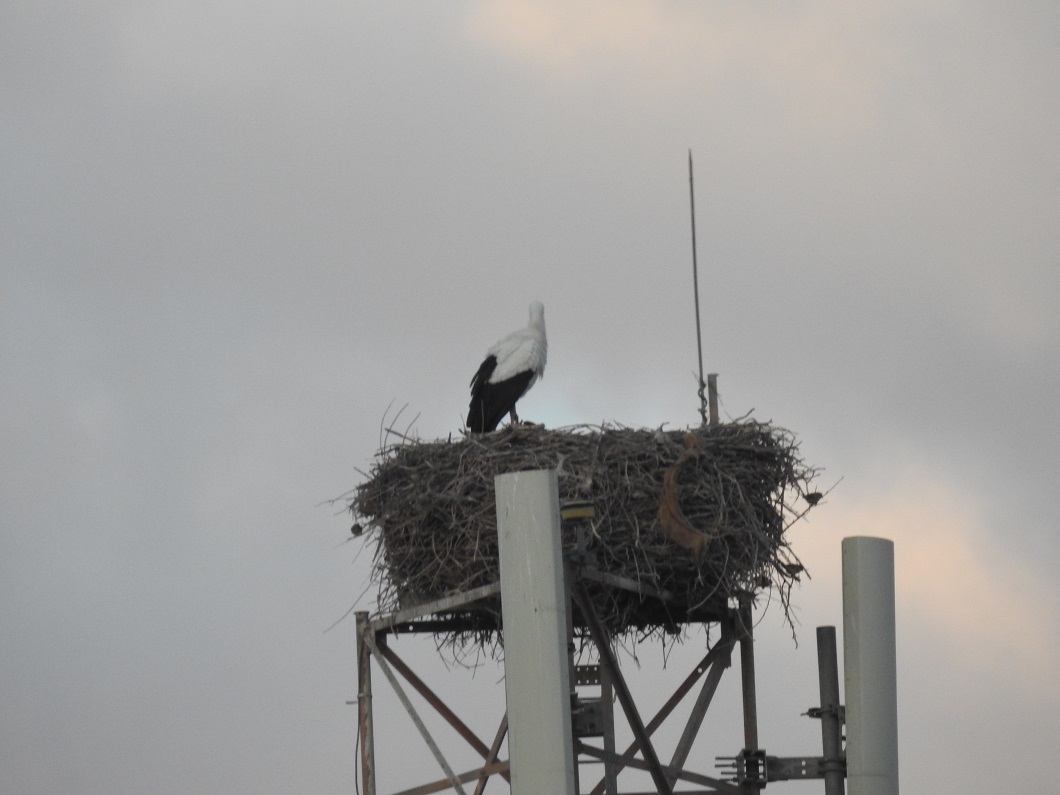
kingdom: Animalia
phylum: Chordata
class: Aves
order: Ciconiiformes
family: Ciconiidae
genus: Ciconia
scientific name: Ciconia ciconia
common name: White stork
